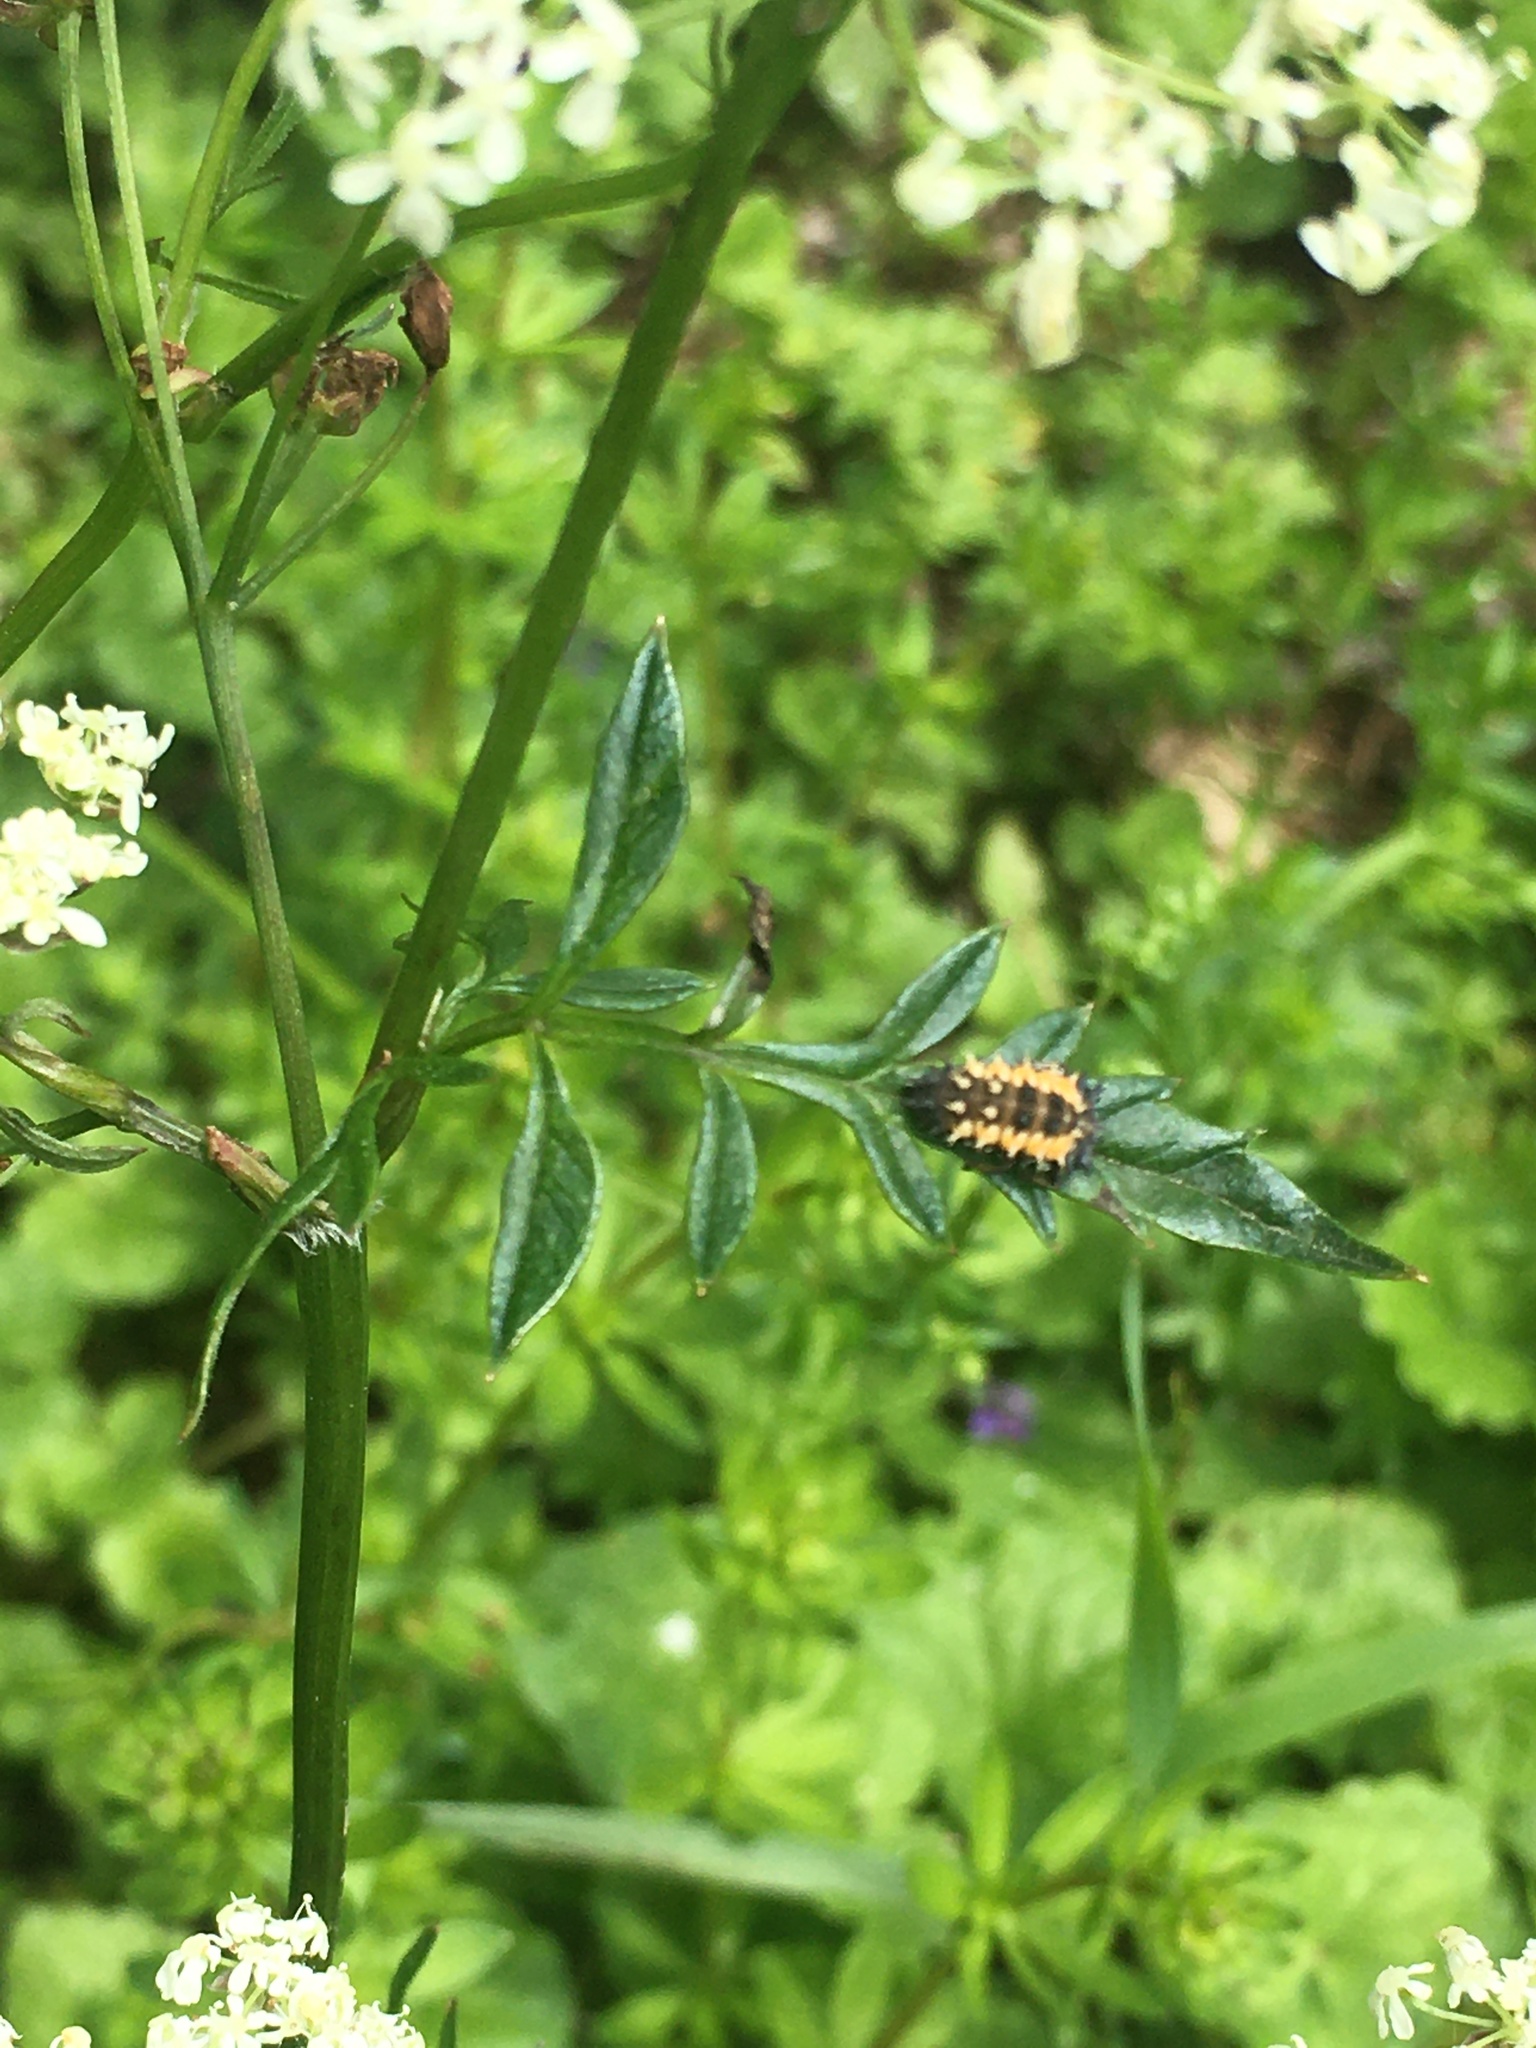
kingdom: Animalia
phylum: Arthropoda
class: Insecta
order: Coleoptera
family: Coccinellidae
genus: Harmonia
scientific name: Harmonia axyridis
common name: Harlequin ladybird
